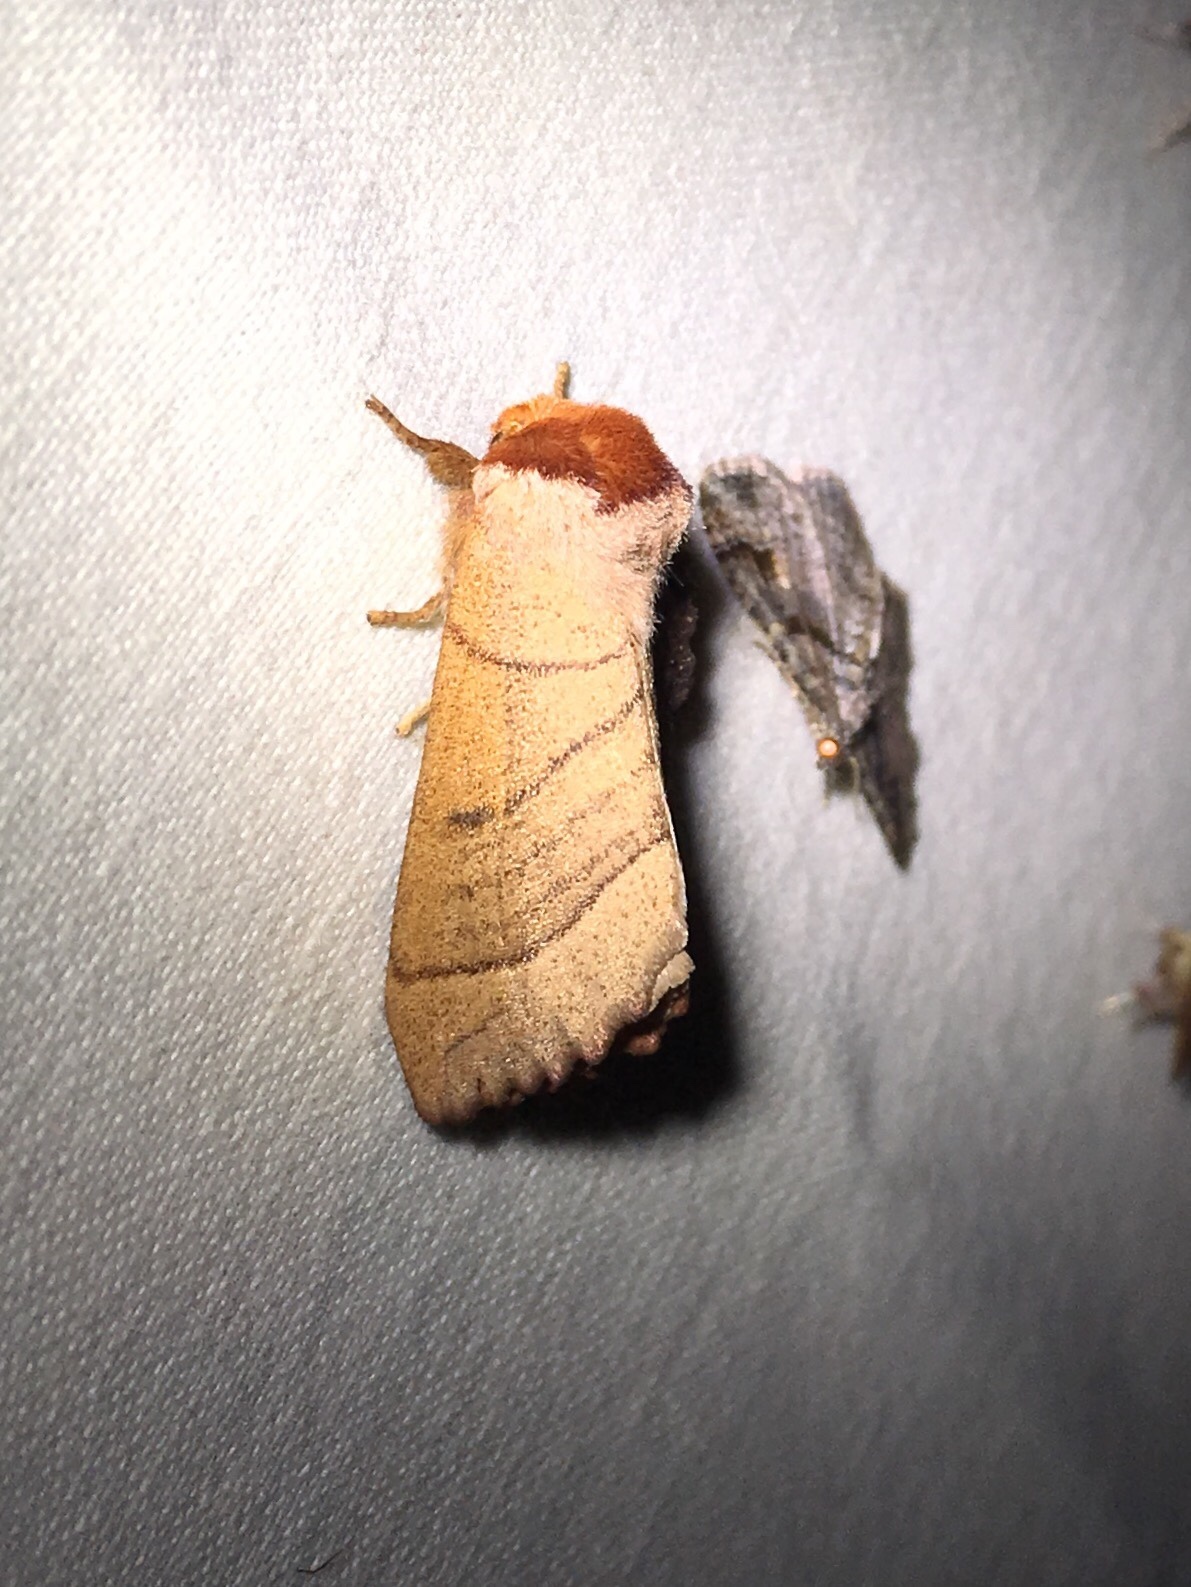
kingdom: Animalia
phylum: Arthropoda
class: Insecta
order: Lepidoptera
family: Notodontidae
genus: Datana
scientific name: Datana ministra
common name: Yellow-necked caterpillar moth
